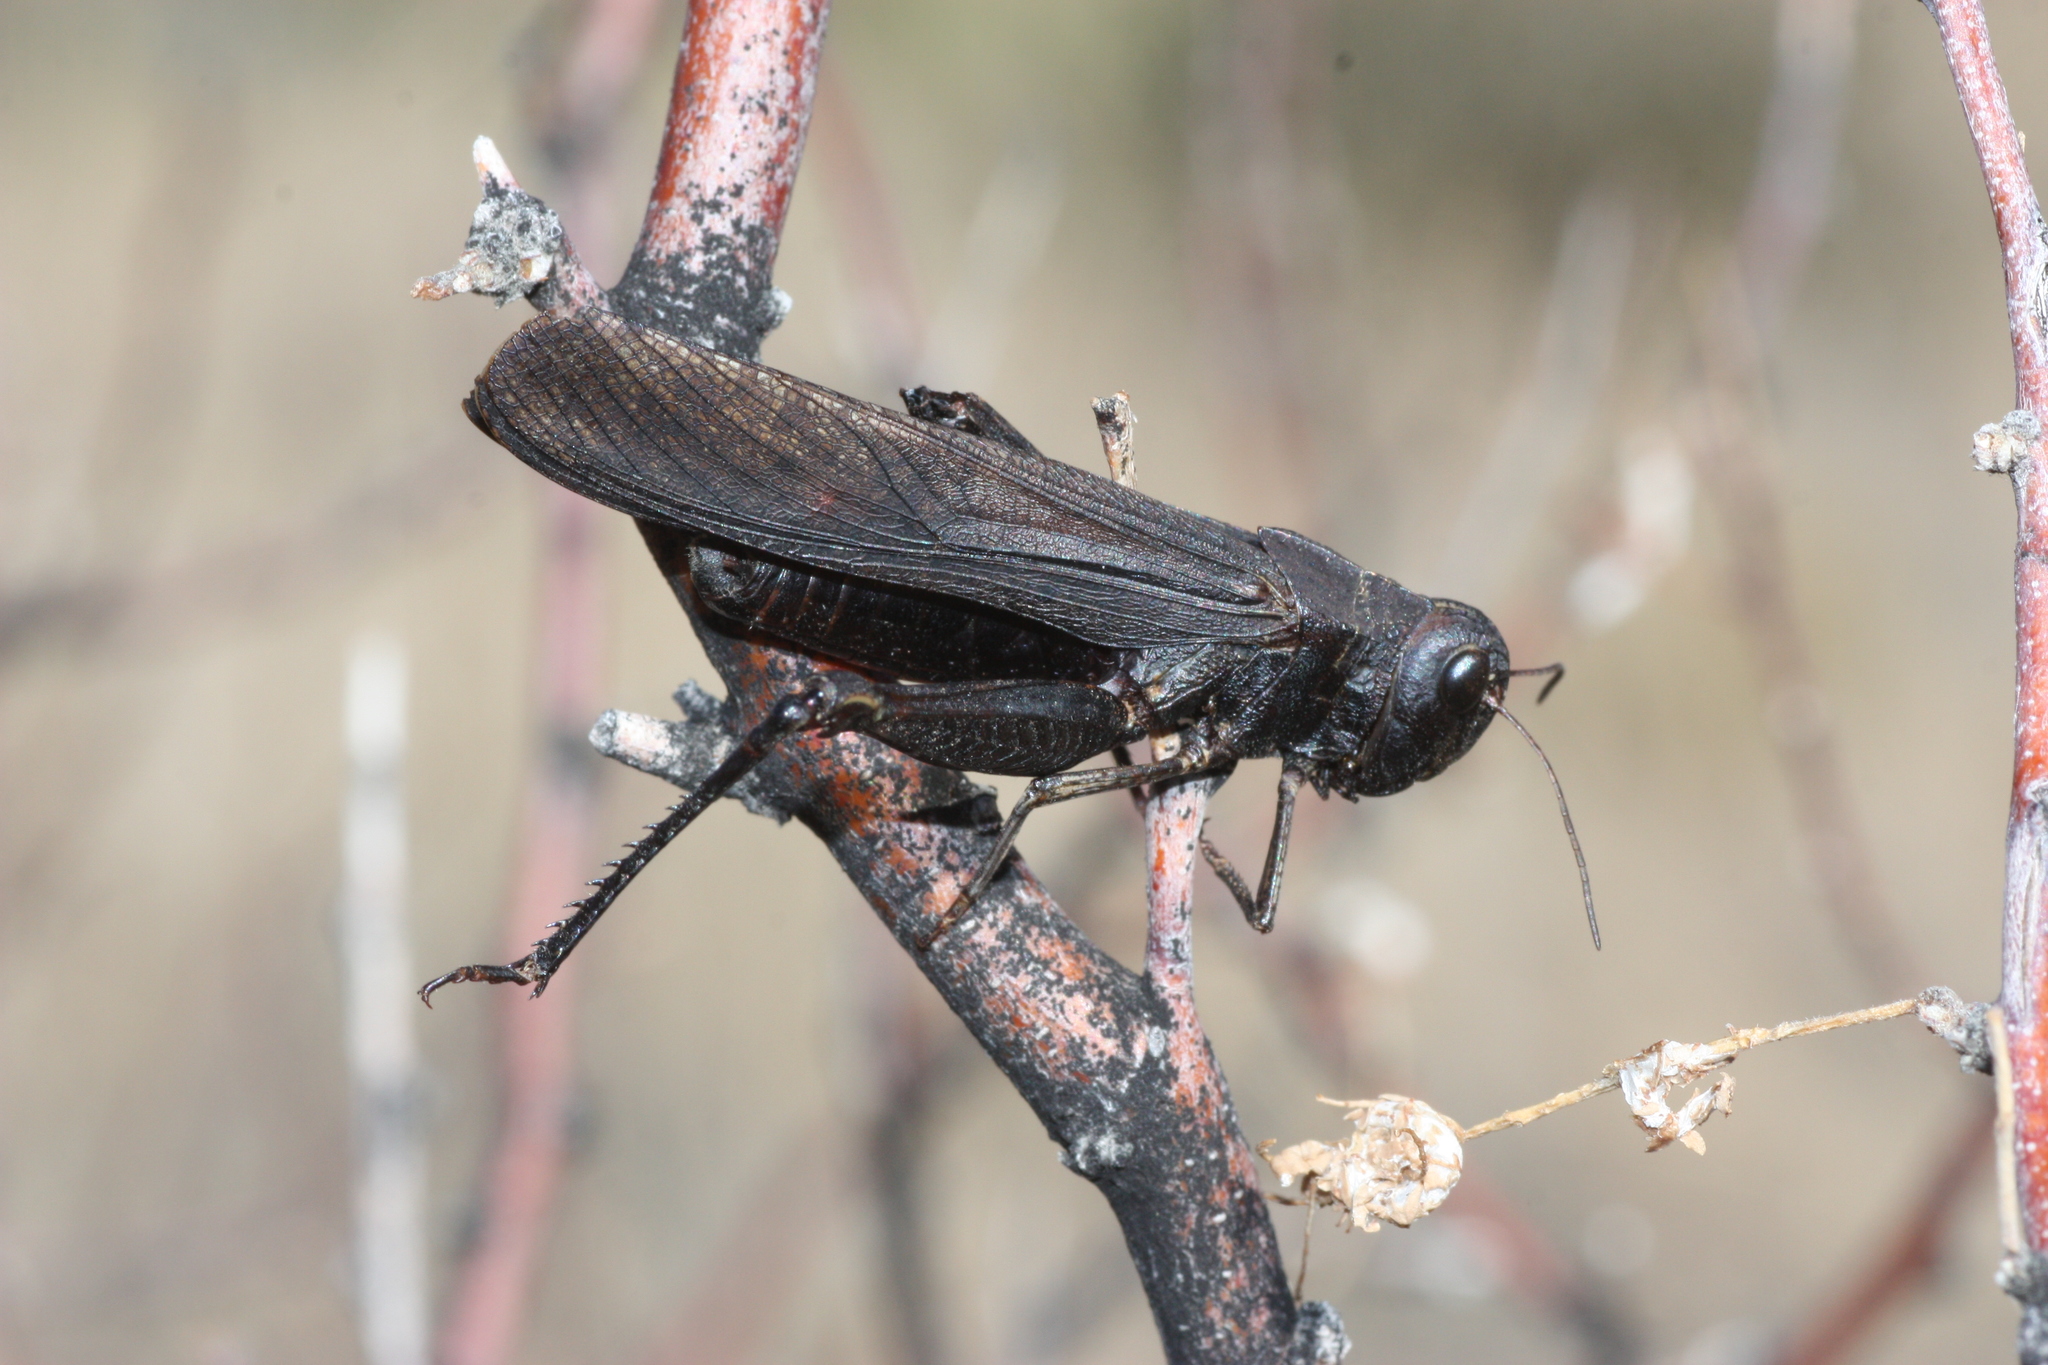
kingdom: Animalia
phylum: Arthropoda
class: Insecta
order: Orthoptera
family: Acrididae
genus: Arphia
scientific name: Arphia pseudo-nietana
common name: Red-winged grasshopper
